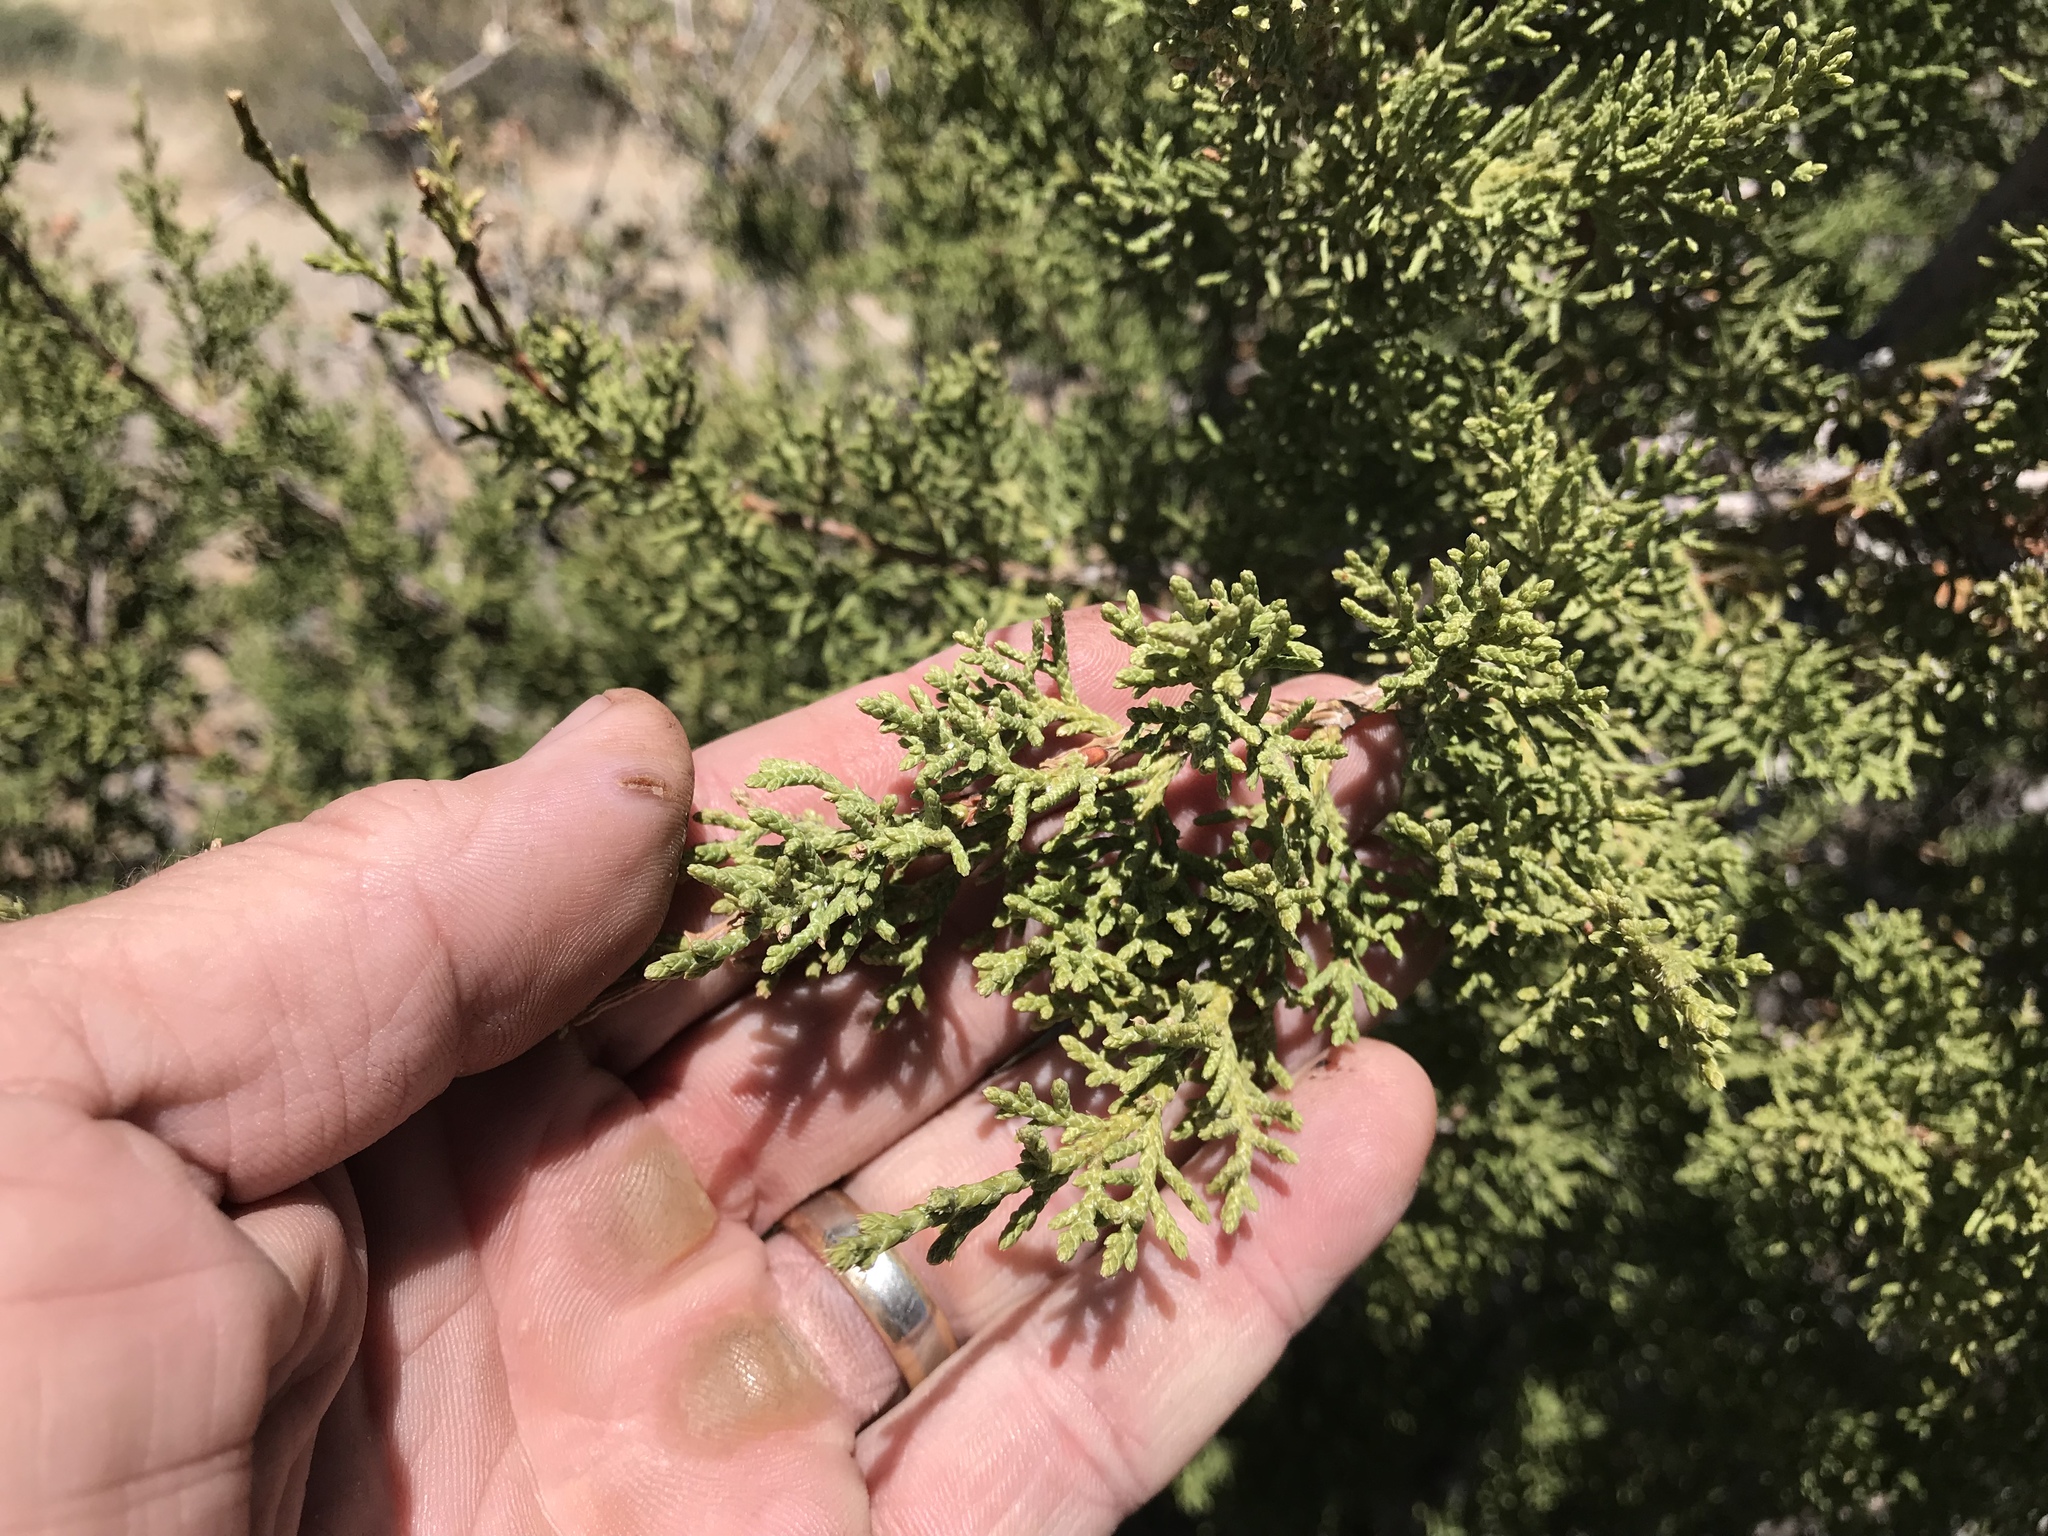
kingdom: Plantae
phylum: Tracheophyta
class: Pinopsida
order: Pinales
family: Cupressaceae
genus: Juniperus
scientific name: Juniperus monosperma
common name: One-seed juniper
